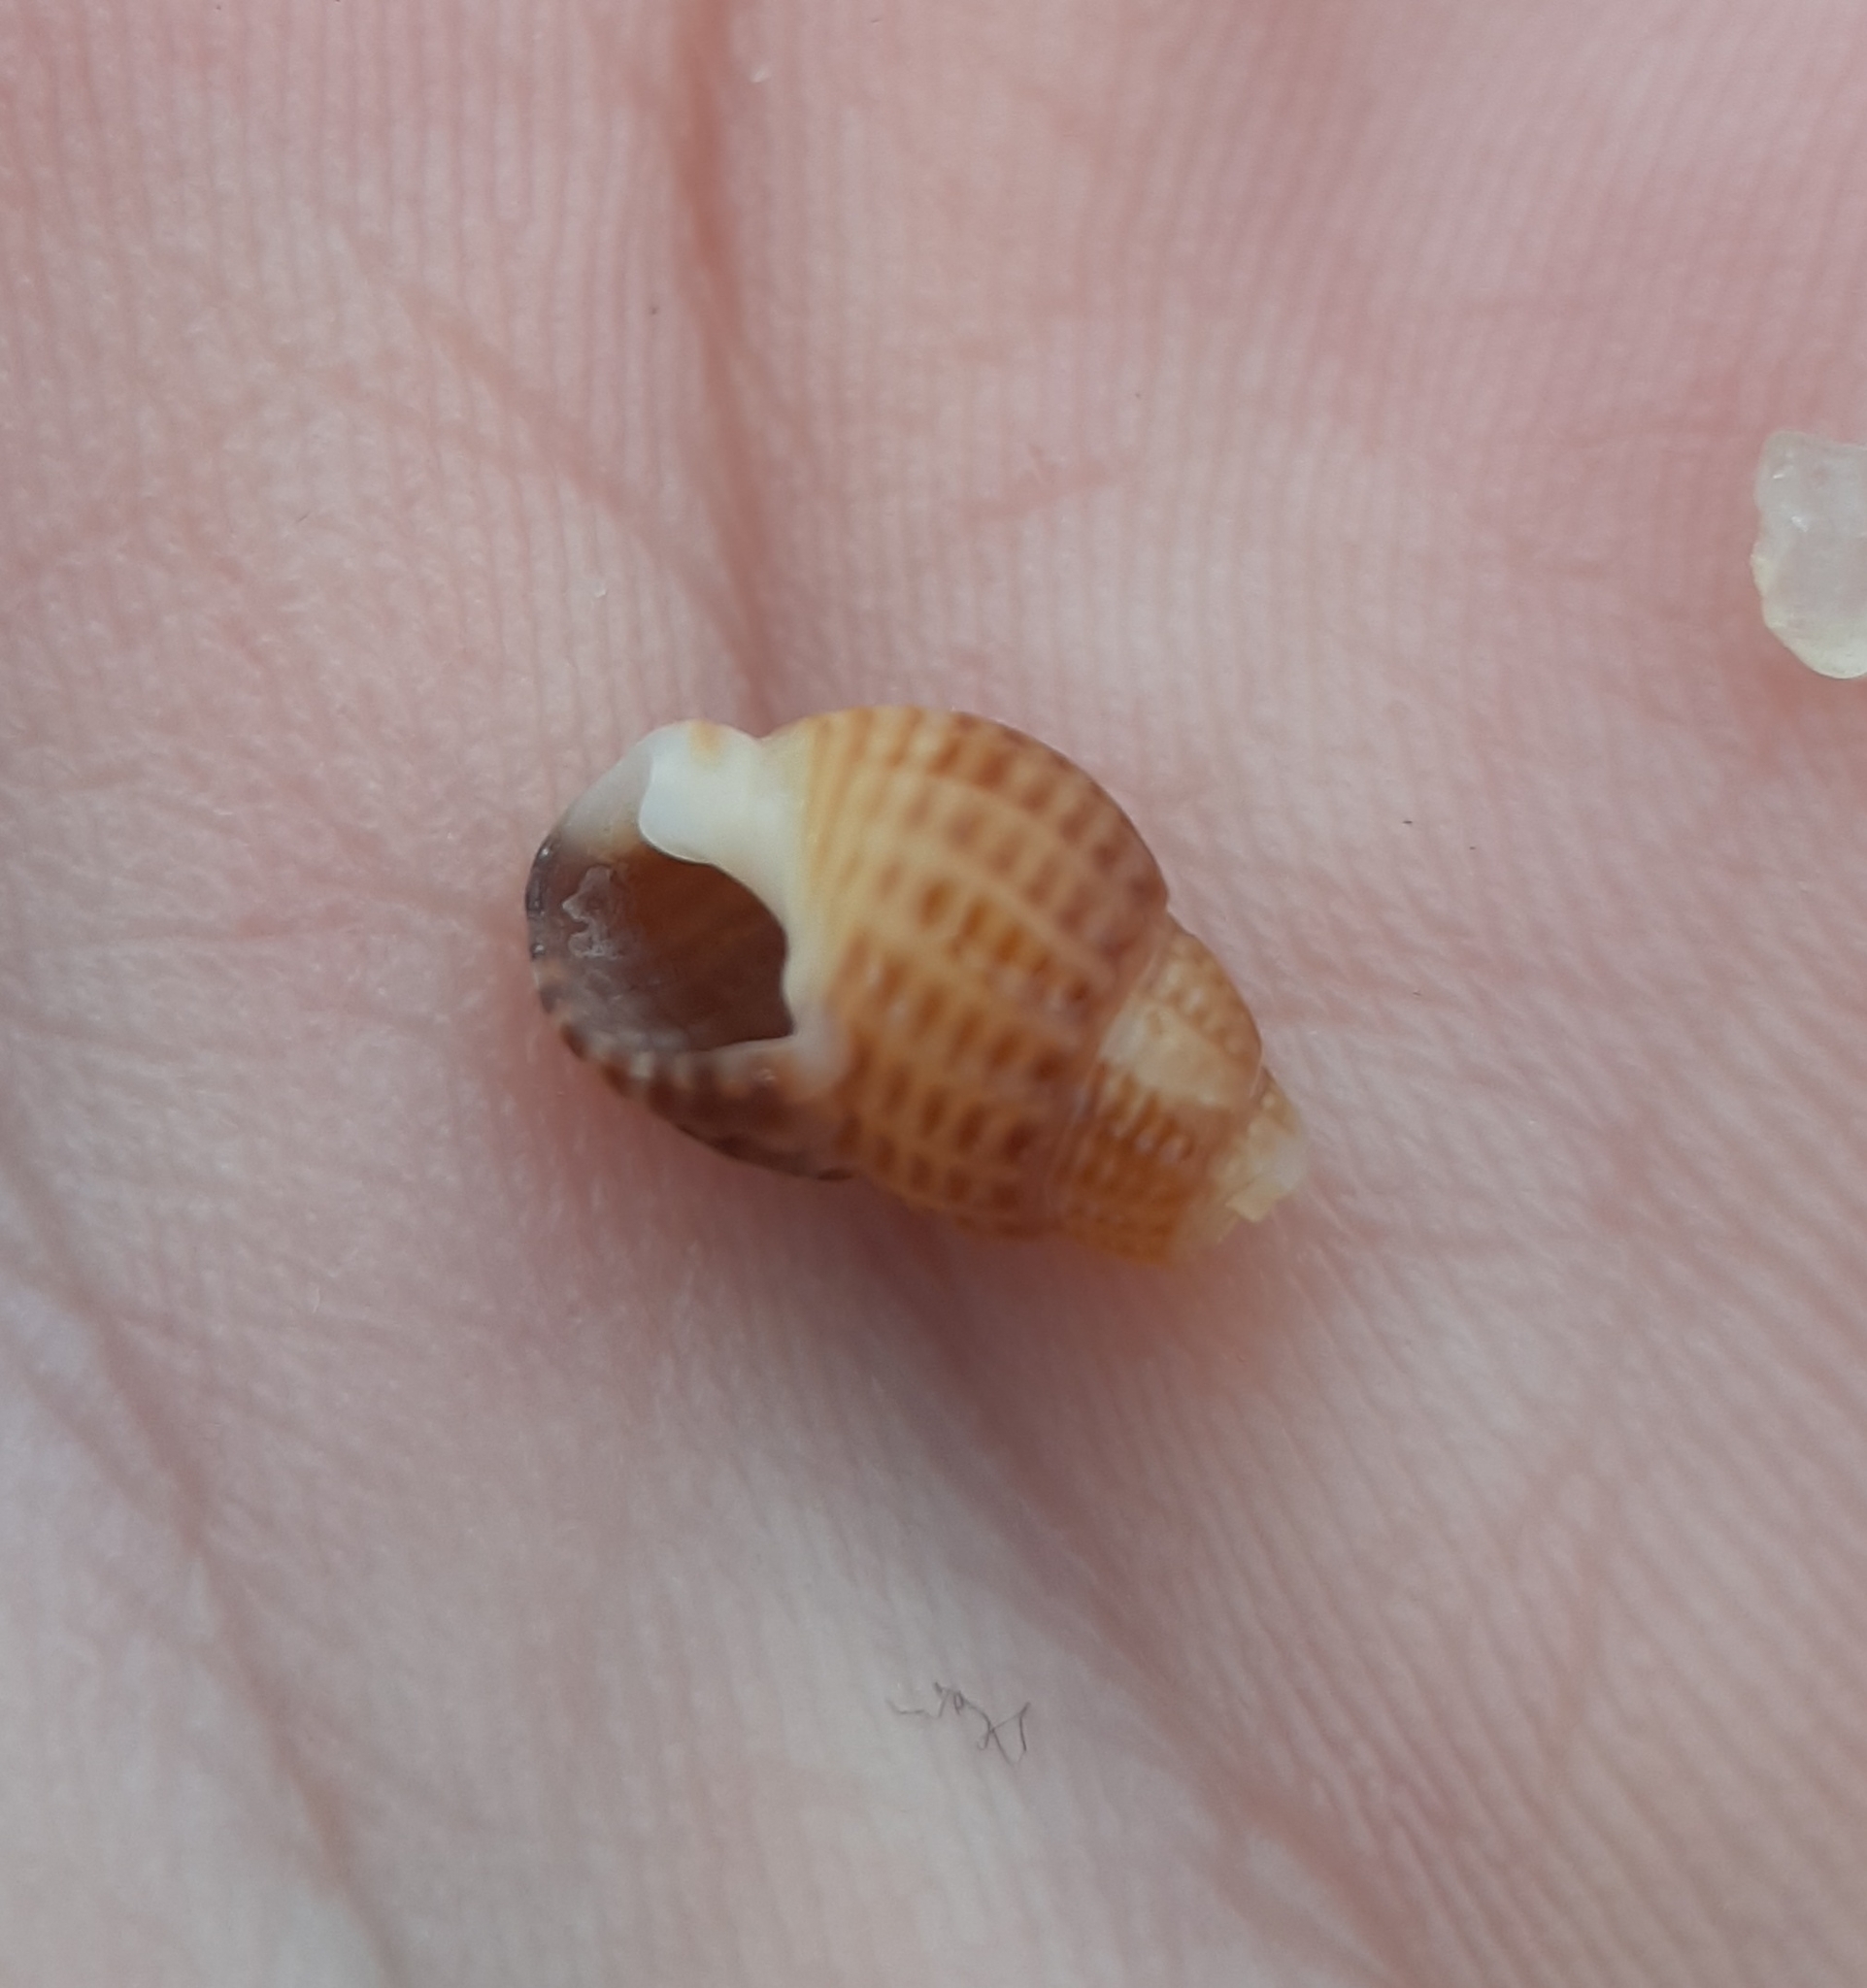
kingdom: Animalia
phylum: Mollusca
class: Gastropoda
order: Neogastropoda
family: Nassariidae
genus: Ilyanassa
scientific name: Ilyanassa trivittata
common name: Three-line mudsnail
